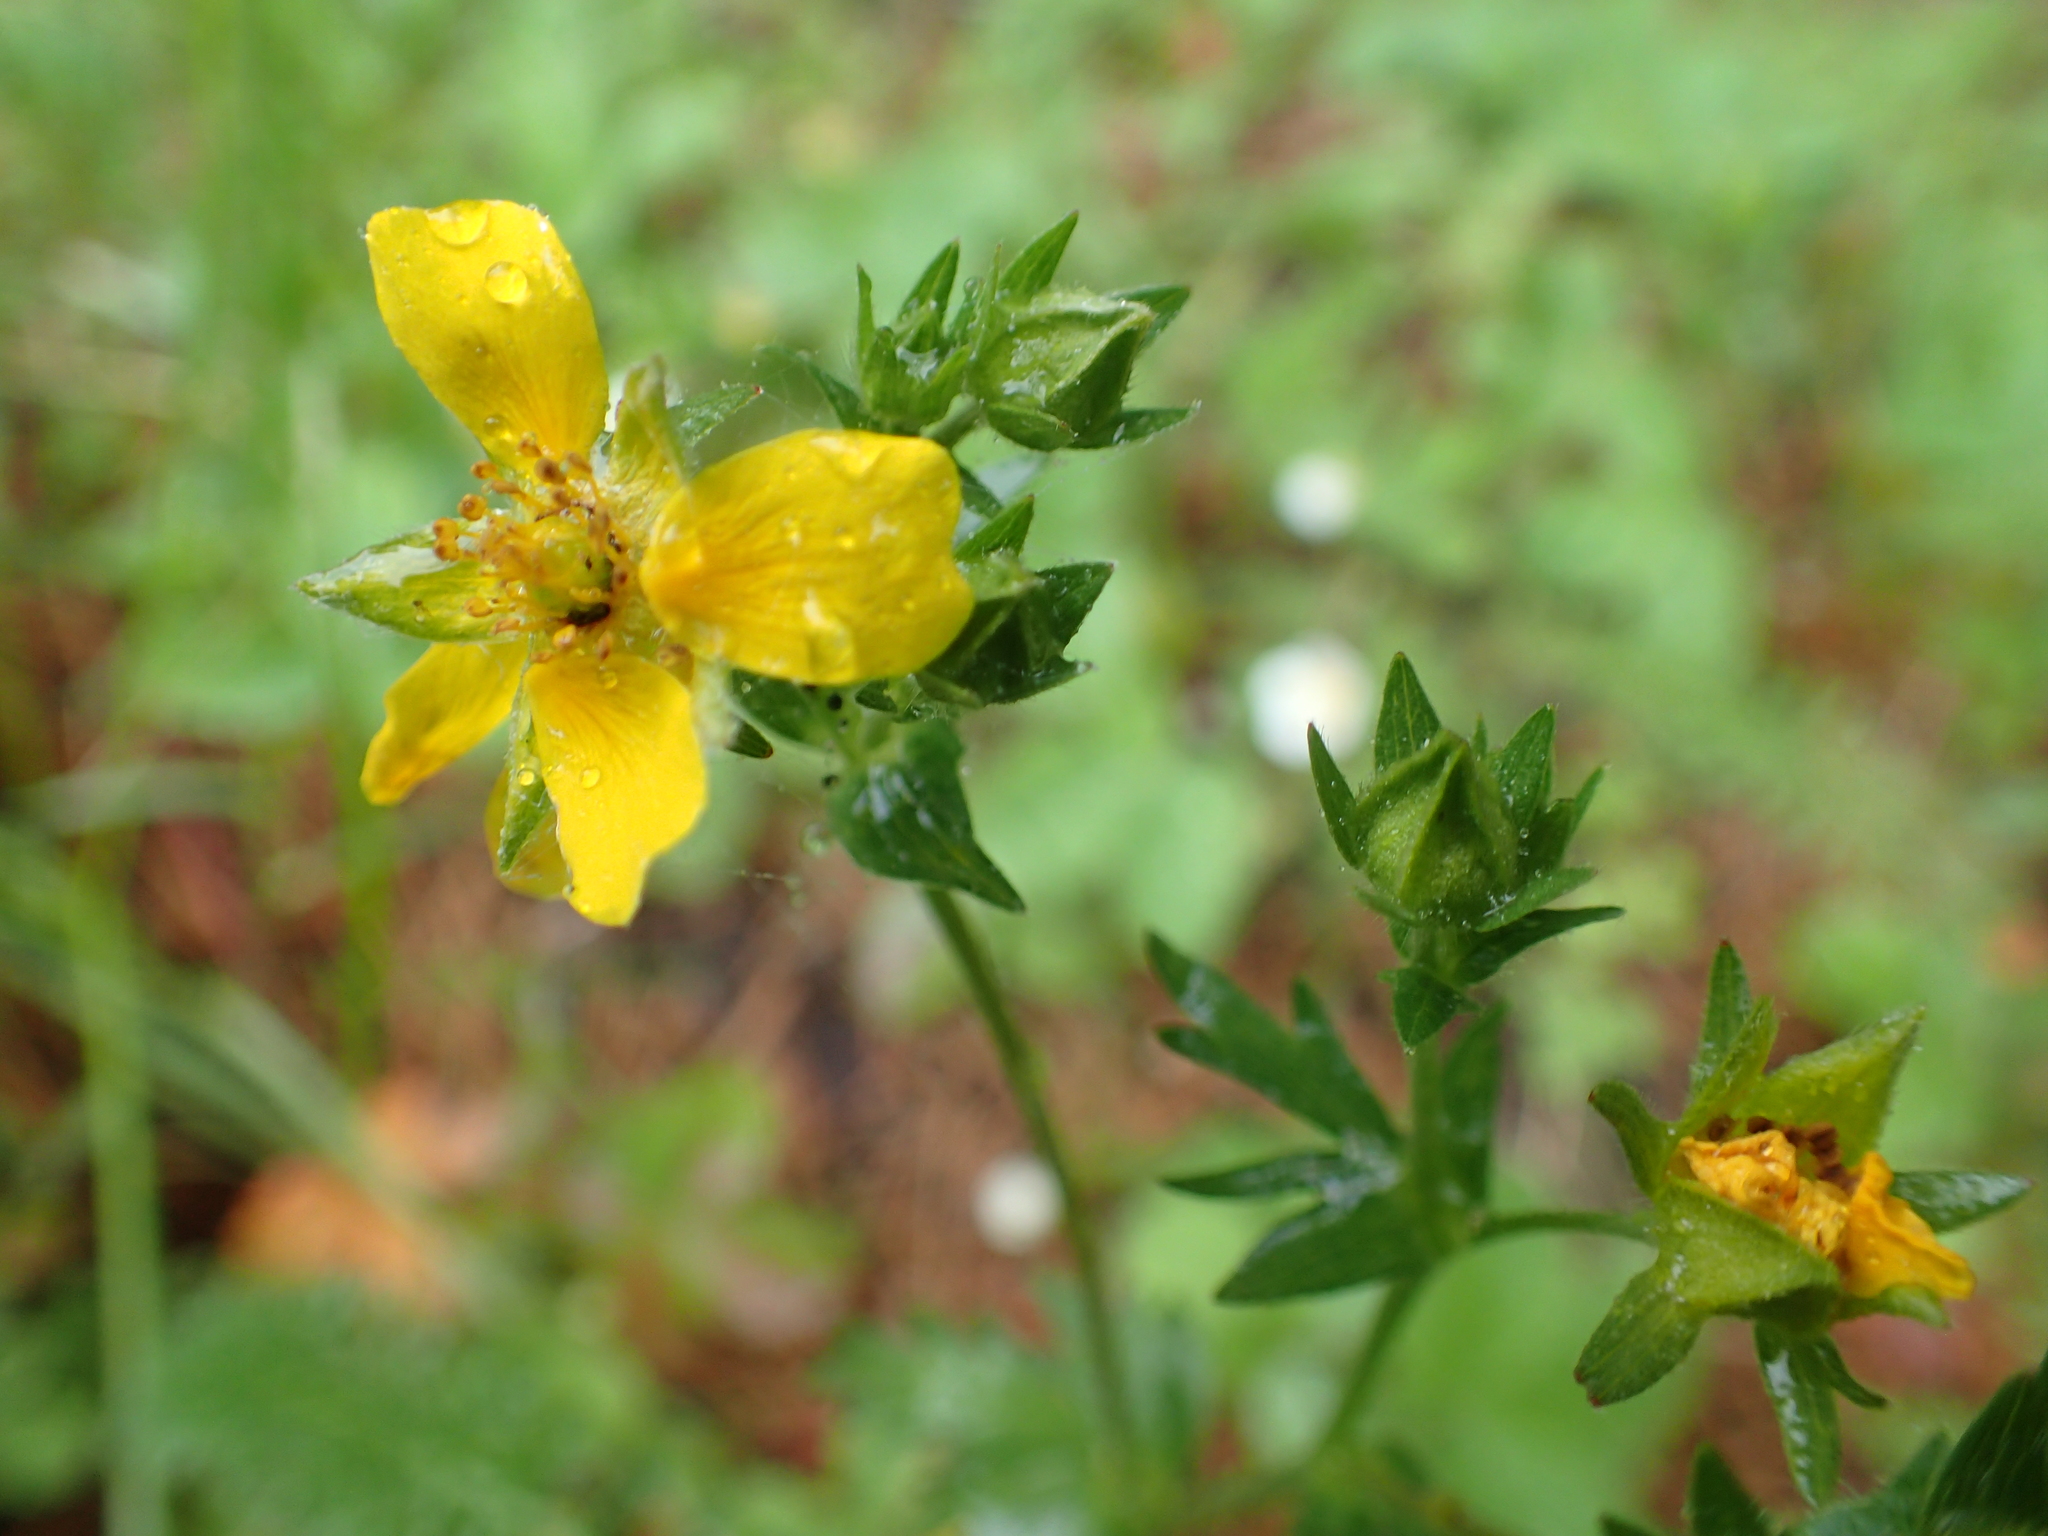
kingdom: Plantae
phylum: Tracheophyta
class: Magnoliopsida
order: Rosales
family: Rosaceae
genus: Potentilla
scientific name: Potentilla drummondii
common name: Drummond's cinquefoil
